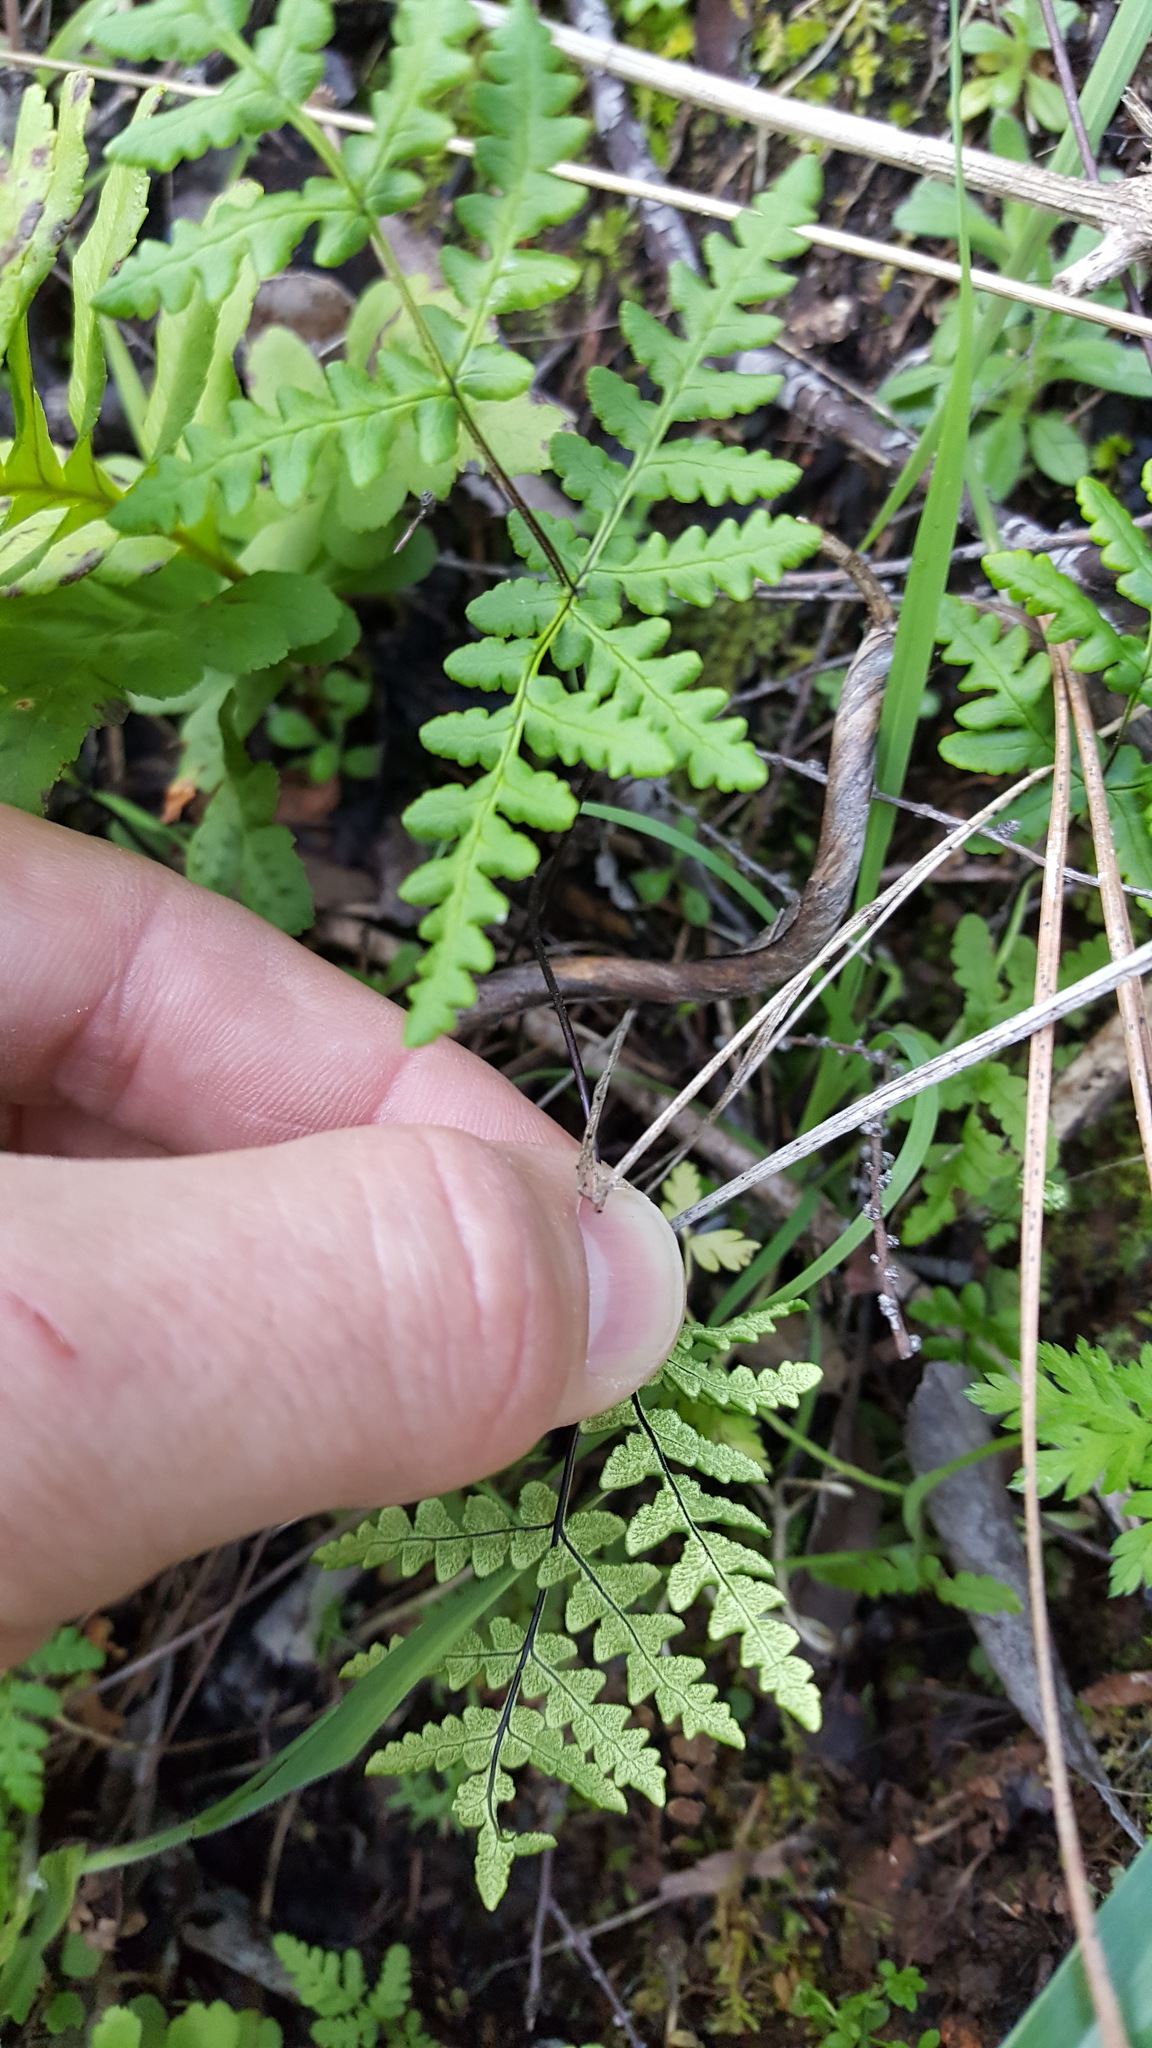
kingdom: Plantae
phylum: Tracheophyta
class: Polypodiopsida
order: Polypodiales
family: Pteridaceae
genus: Pentagramma
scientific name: Pentagramma triangularis
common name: Gold fern
